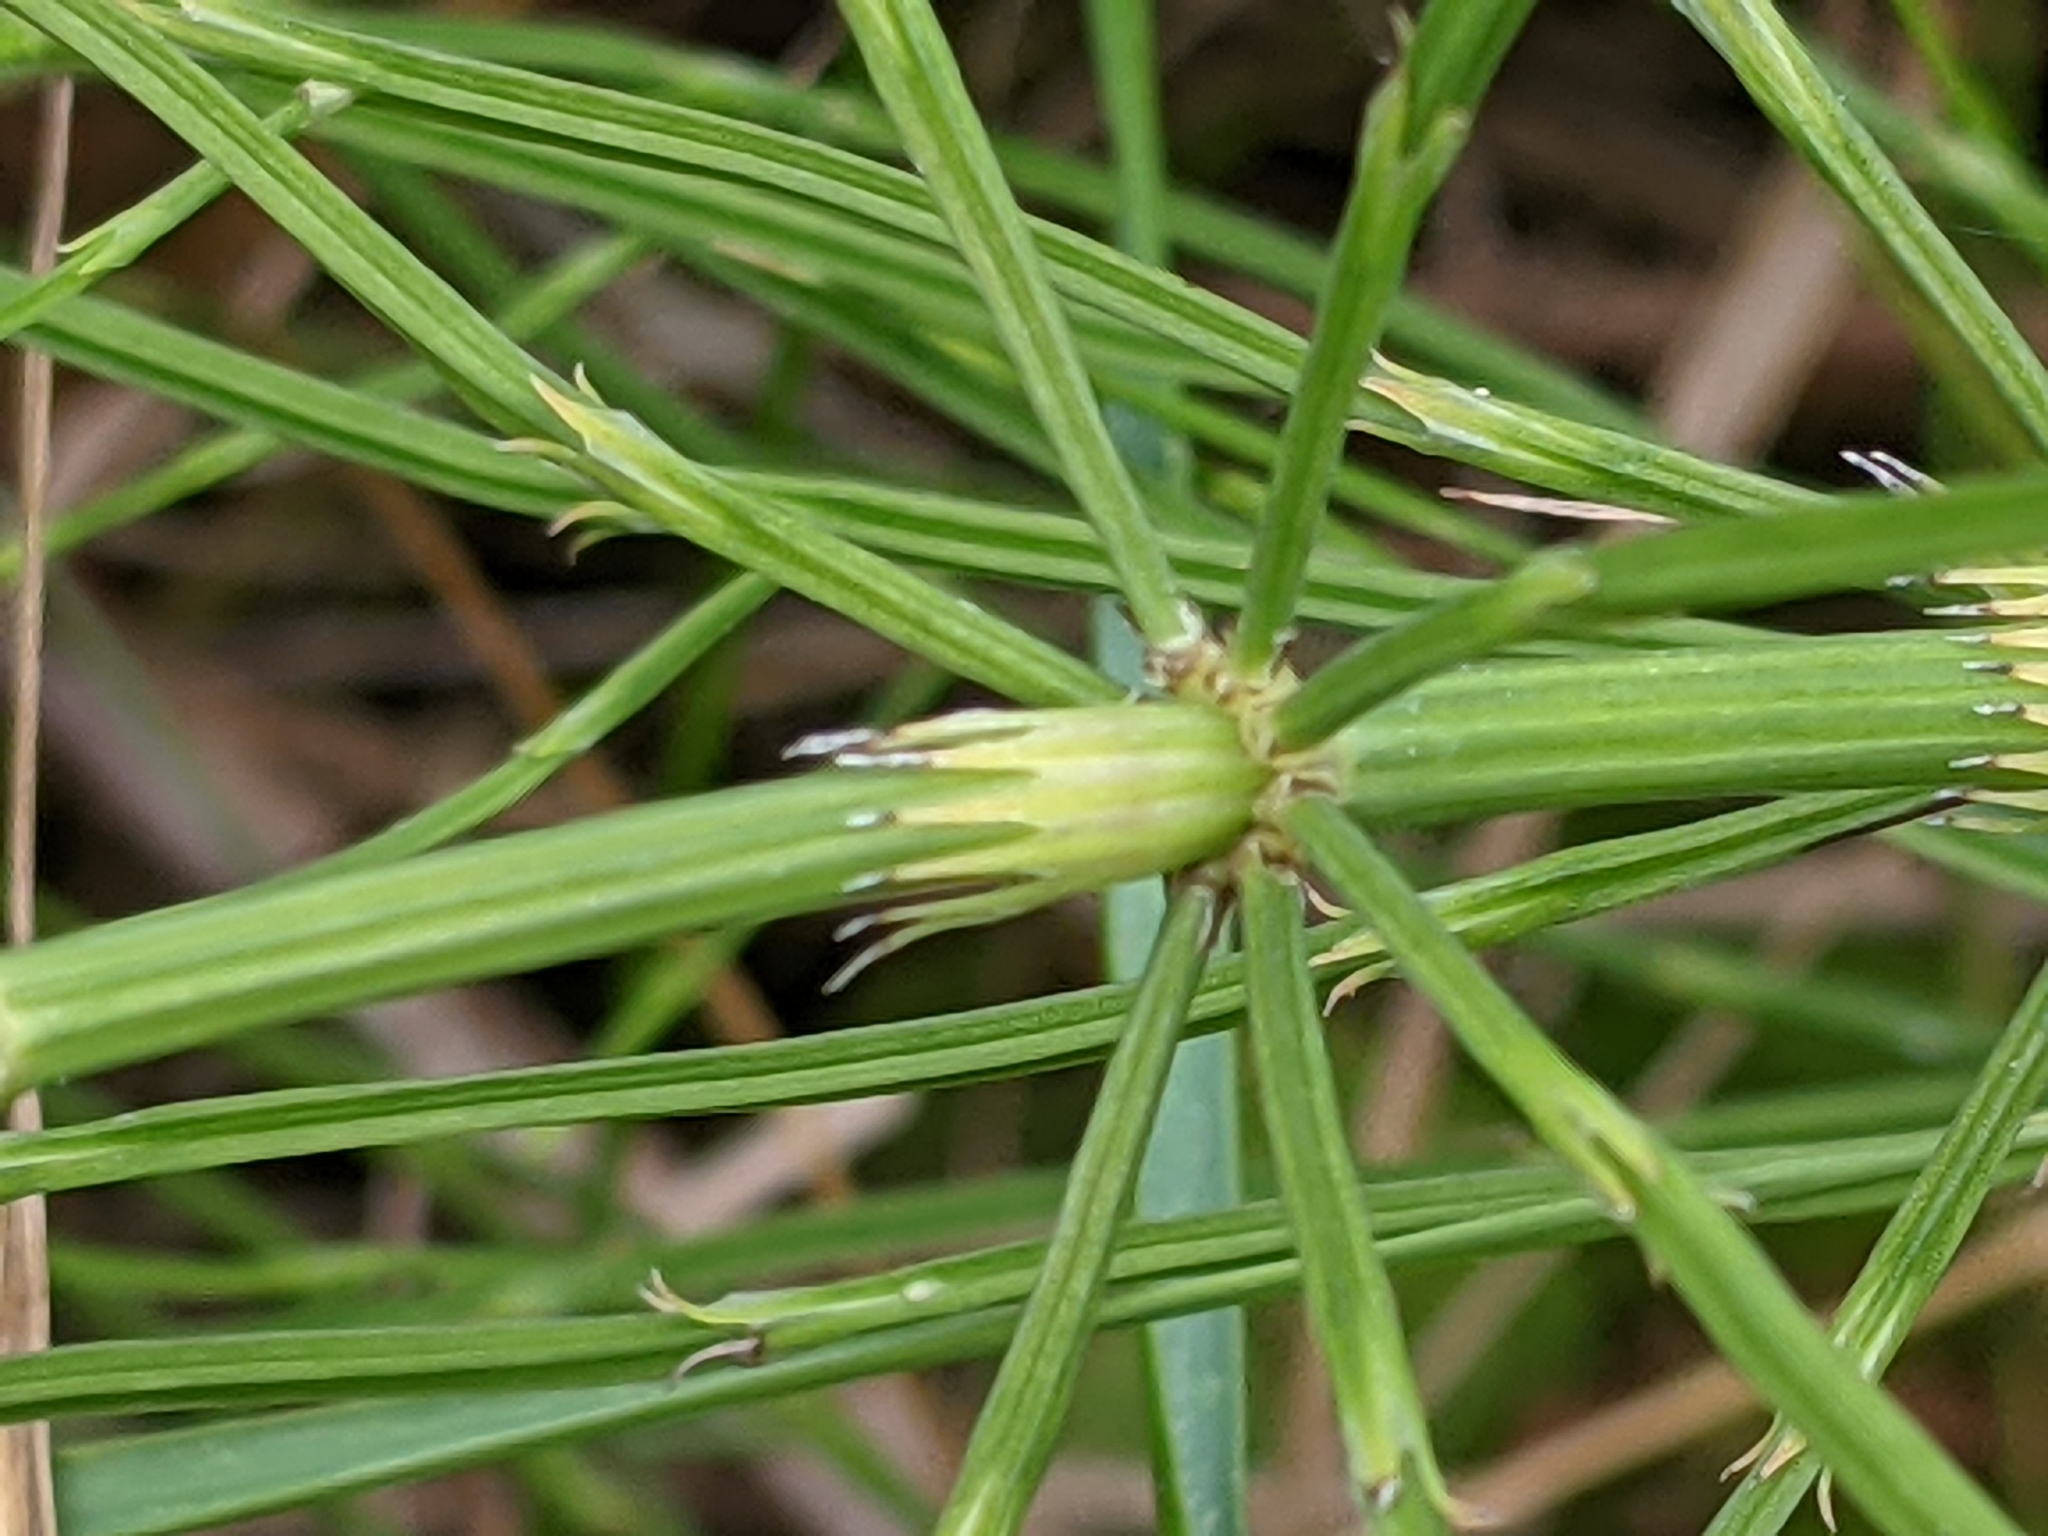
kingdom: Plantae
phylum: Tracheophyta
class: Polypodiopsida
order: Equisetales
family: Equisetaceae
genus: Equisetum
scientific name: Equisetum arvense
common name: Field horsetail
